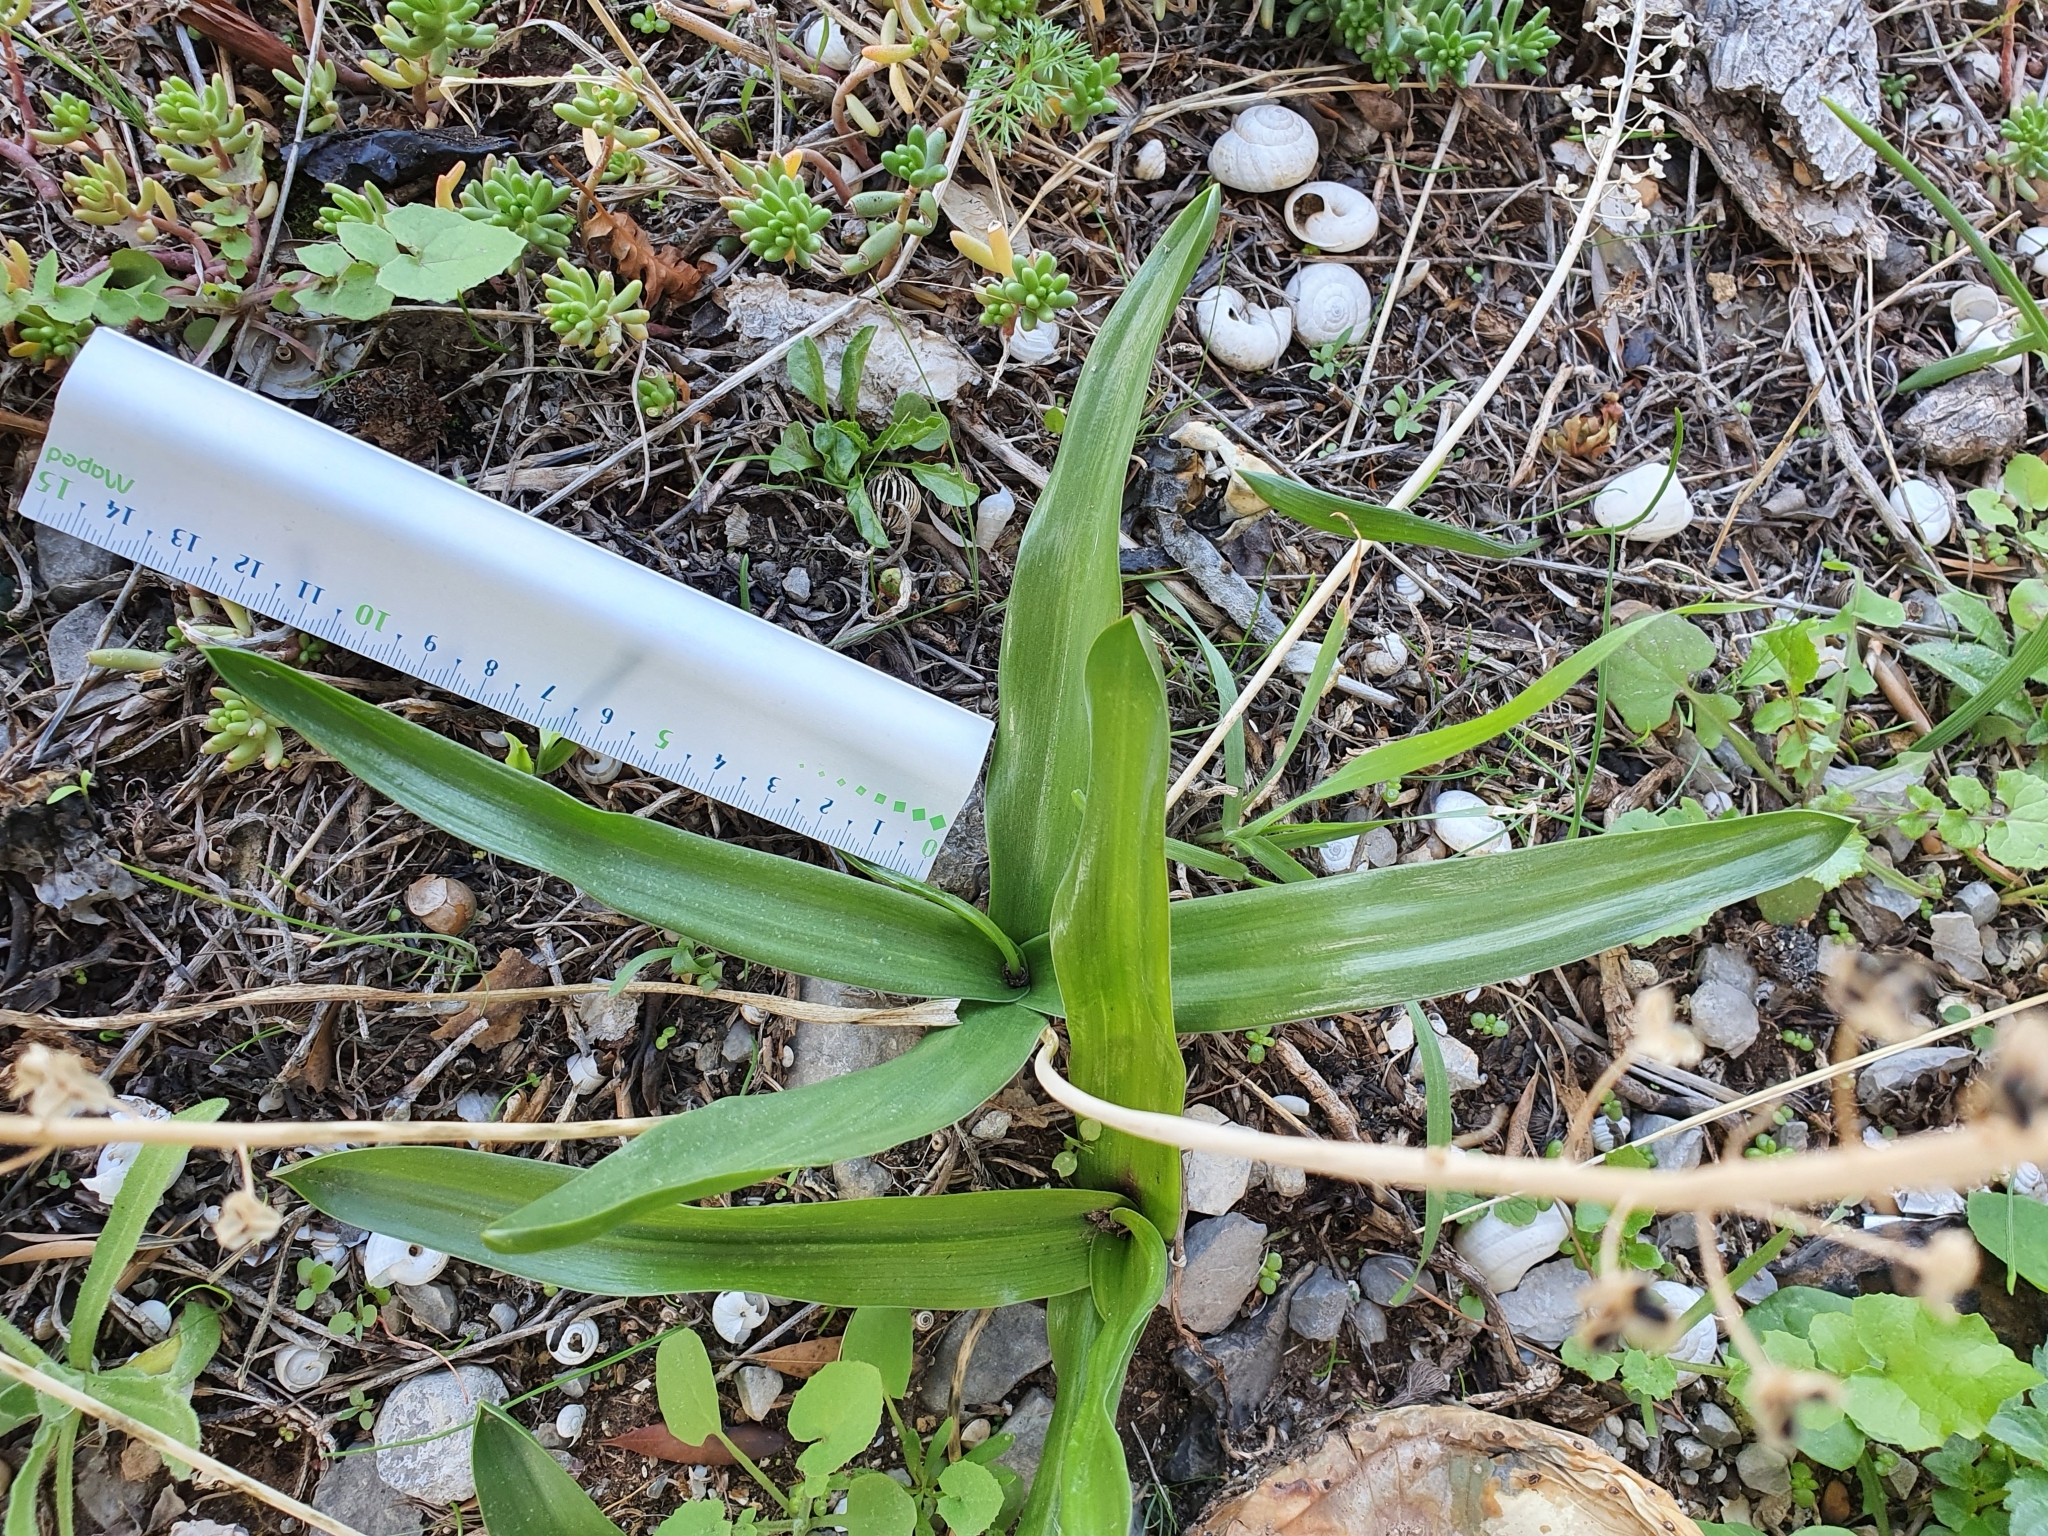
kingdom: Plantae
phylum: Tracheophyta
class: Liliopsida
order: Asparagales
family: Asparagaceae
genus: Prospero
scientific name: Prospero obtusifolium
